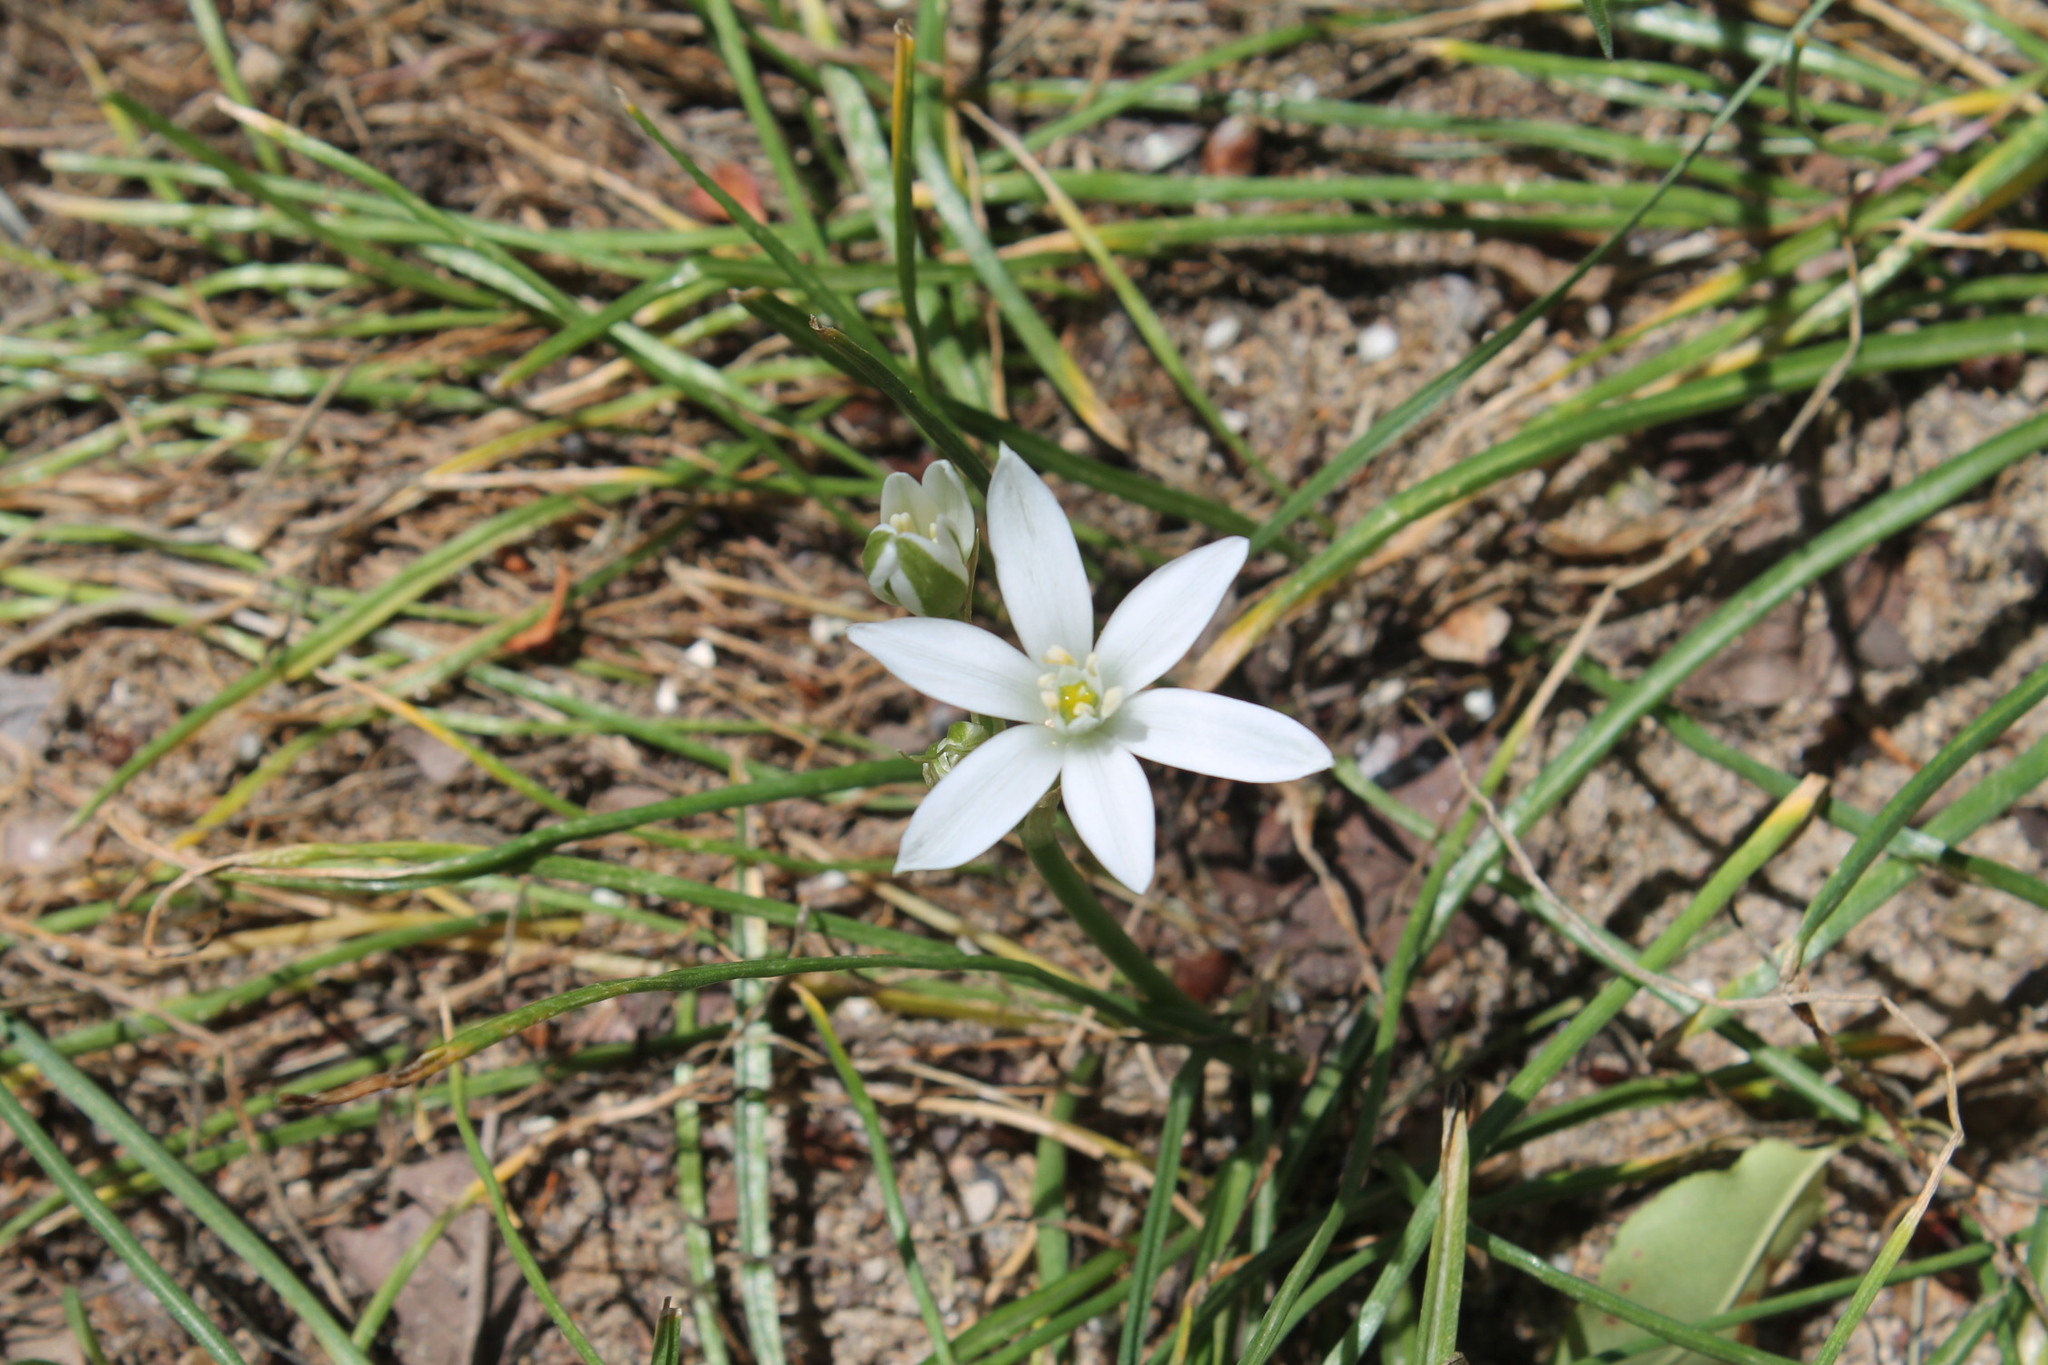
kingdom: Plantae
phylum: Tracheophyta
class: Magnoliopsida
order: Lamiales
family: Plantaginaceae
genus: Plantago
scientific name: Plantago virginica
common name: Hoary plantain
